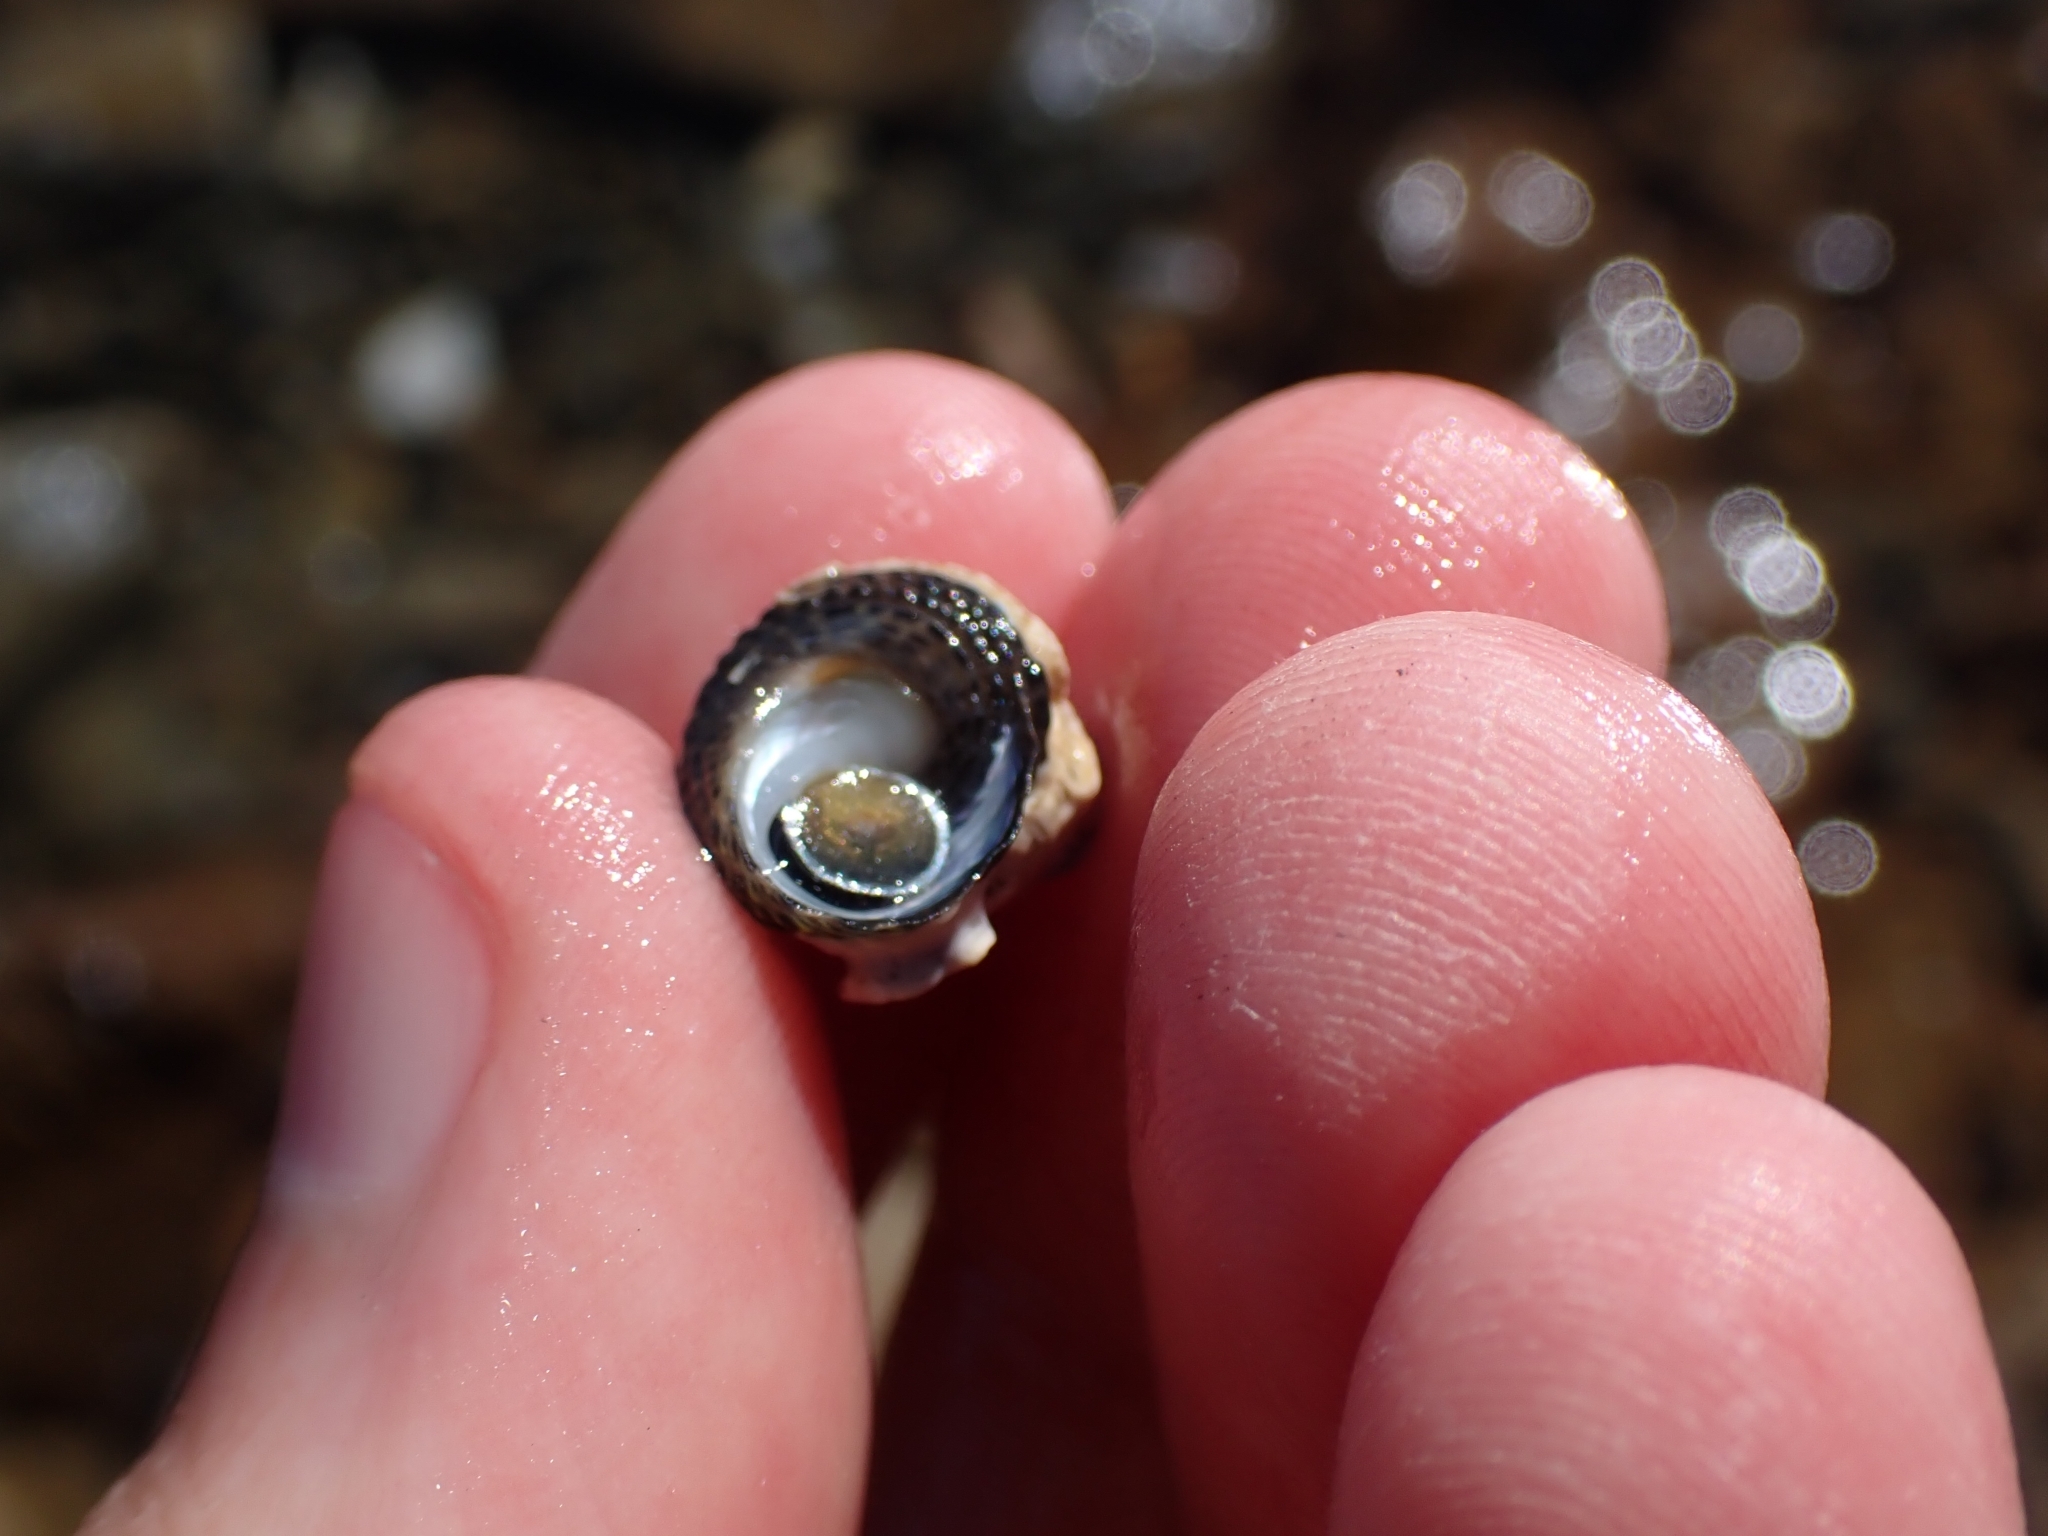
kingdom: Animalia
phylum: Mollusca
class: Gastropoda
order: Trochida
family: Trochidae
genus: Diloma
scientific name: Diloma bicanaliculatum
